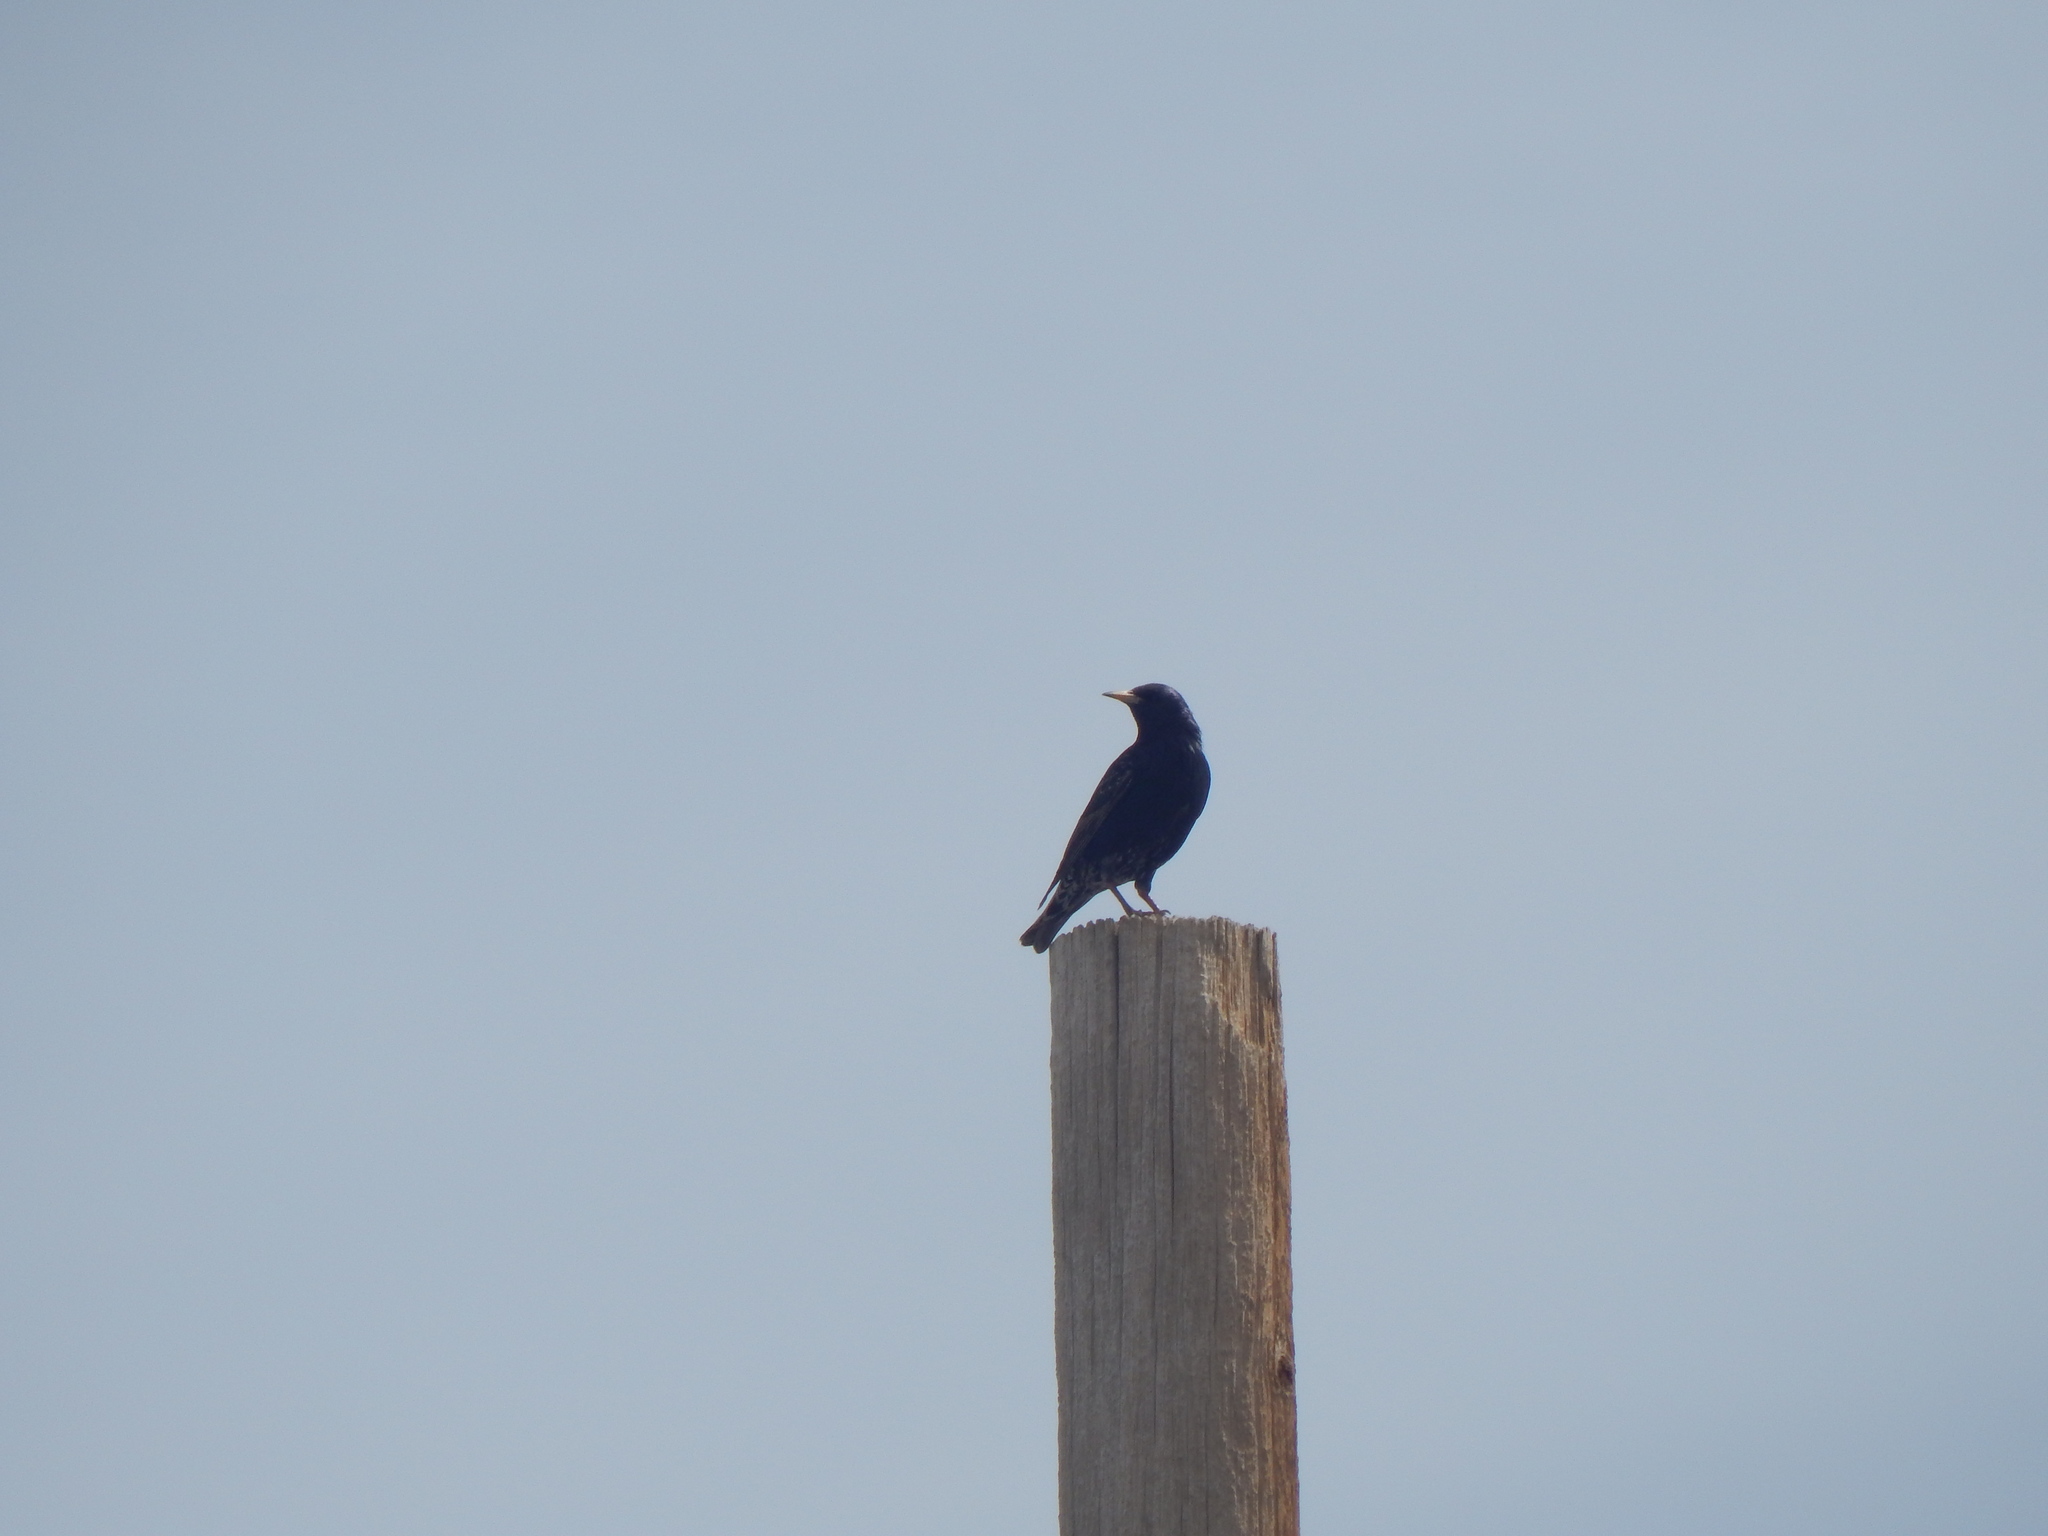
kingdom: Animalia
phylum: Chordata
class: Aves
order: Passeriformes
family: Sturnidae
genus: Sturnus
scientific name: Sturnus vulgaris
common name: Common starling
